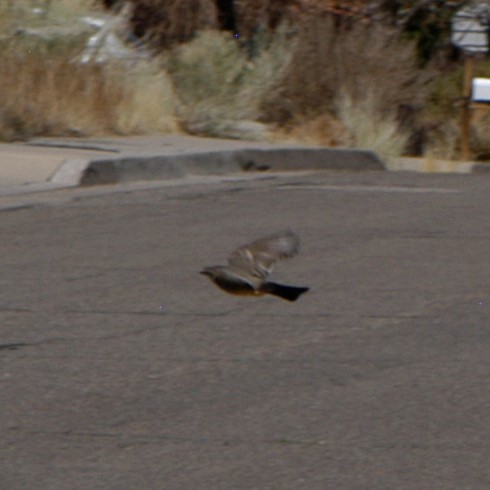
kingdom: Animalia
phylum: Chordata
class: Aves
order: Passeriformes
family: Tyrannidae
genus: Sayornis
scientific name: Sayornis saya
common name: Say's phoebe
